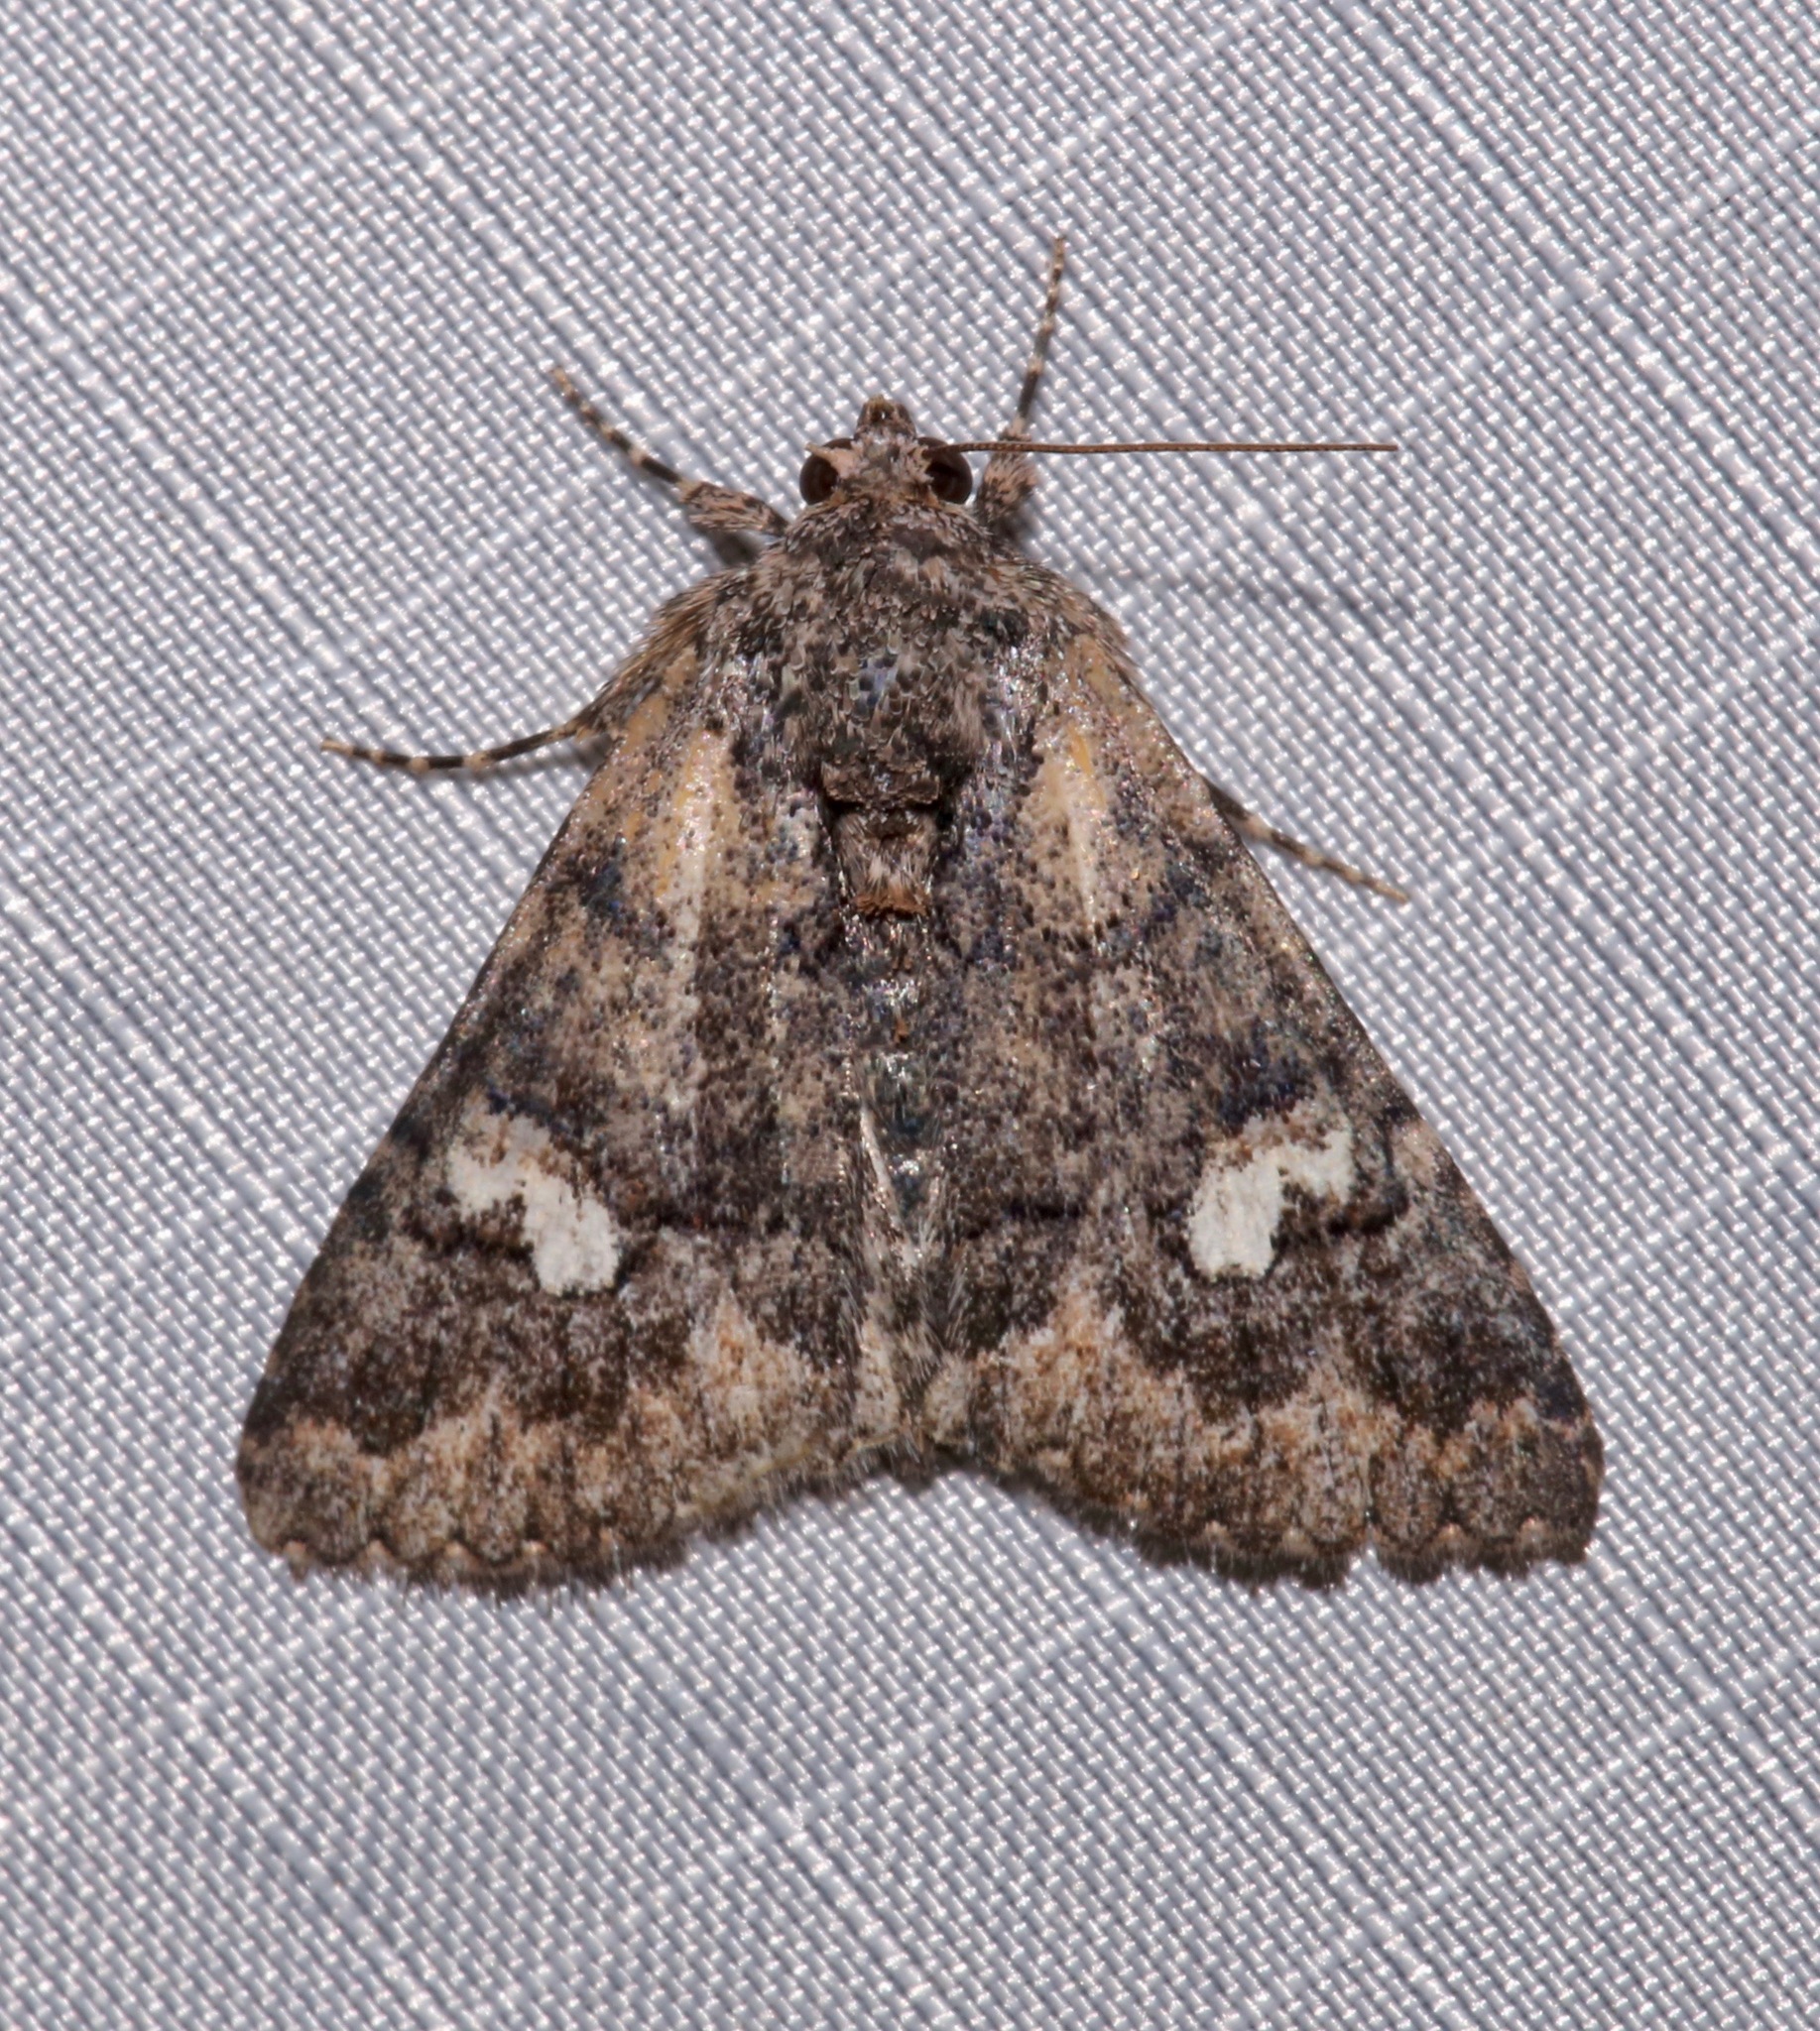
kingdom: Animalia
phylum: Arthropoda
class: Insecta
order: Lepidoptera
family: Erebidae
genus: Elousa
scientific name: Elousa mima
